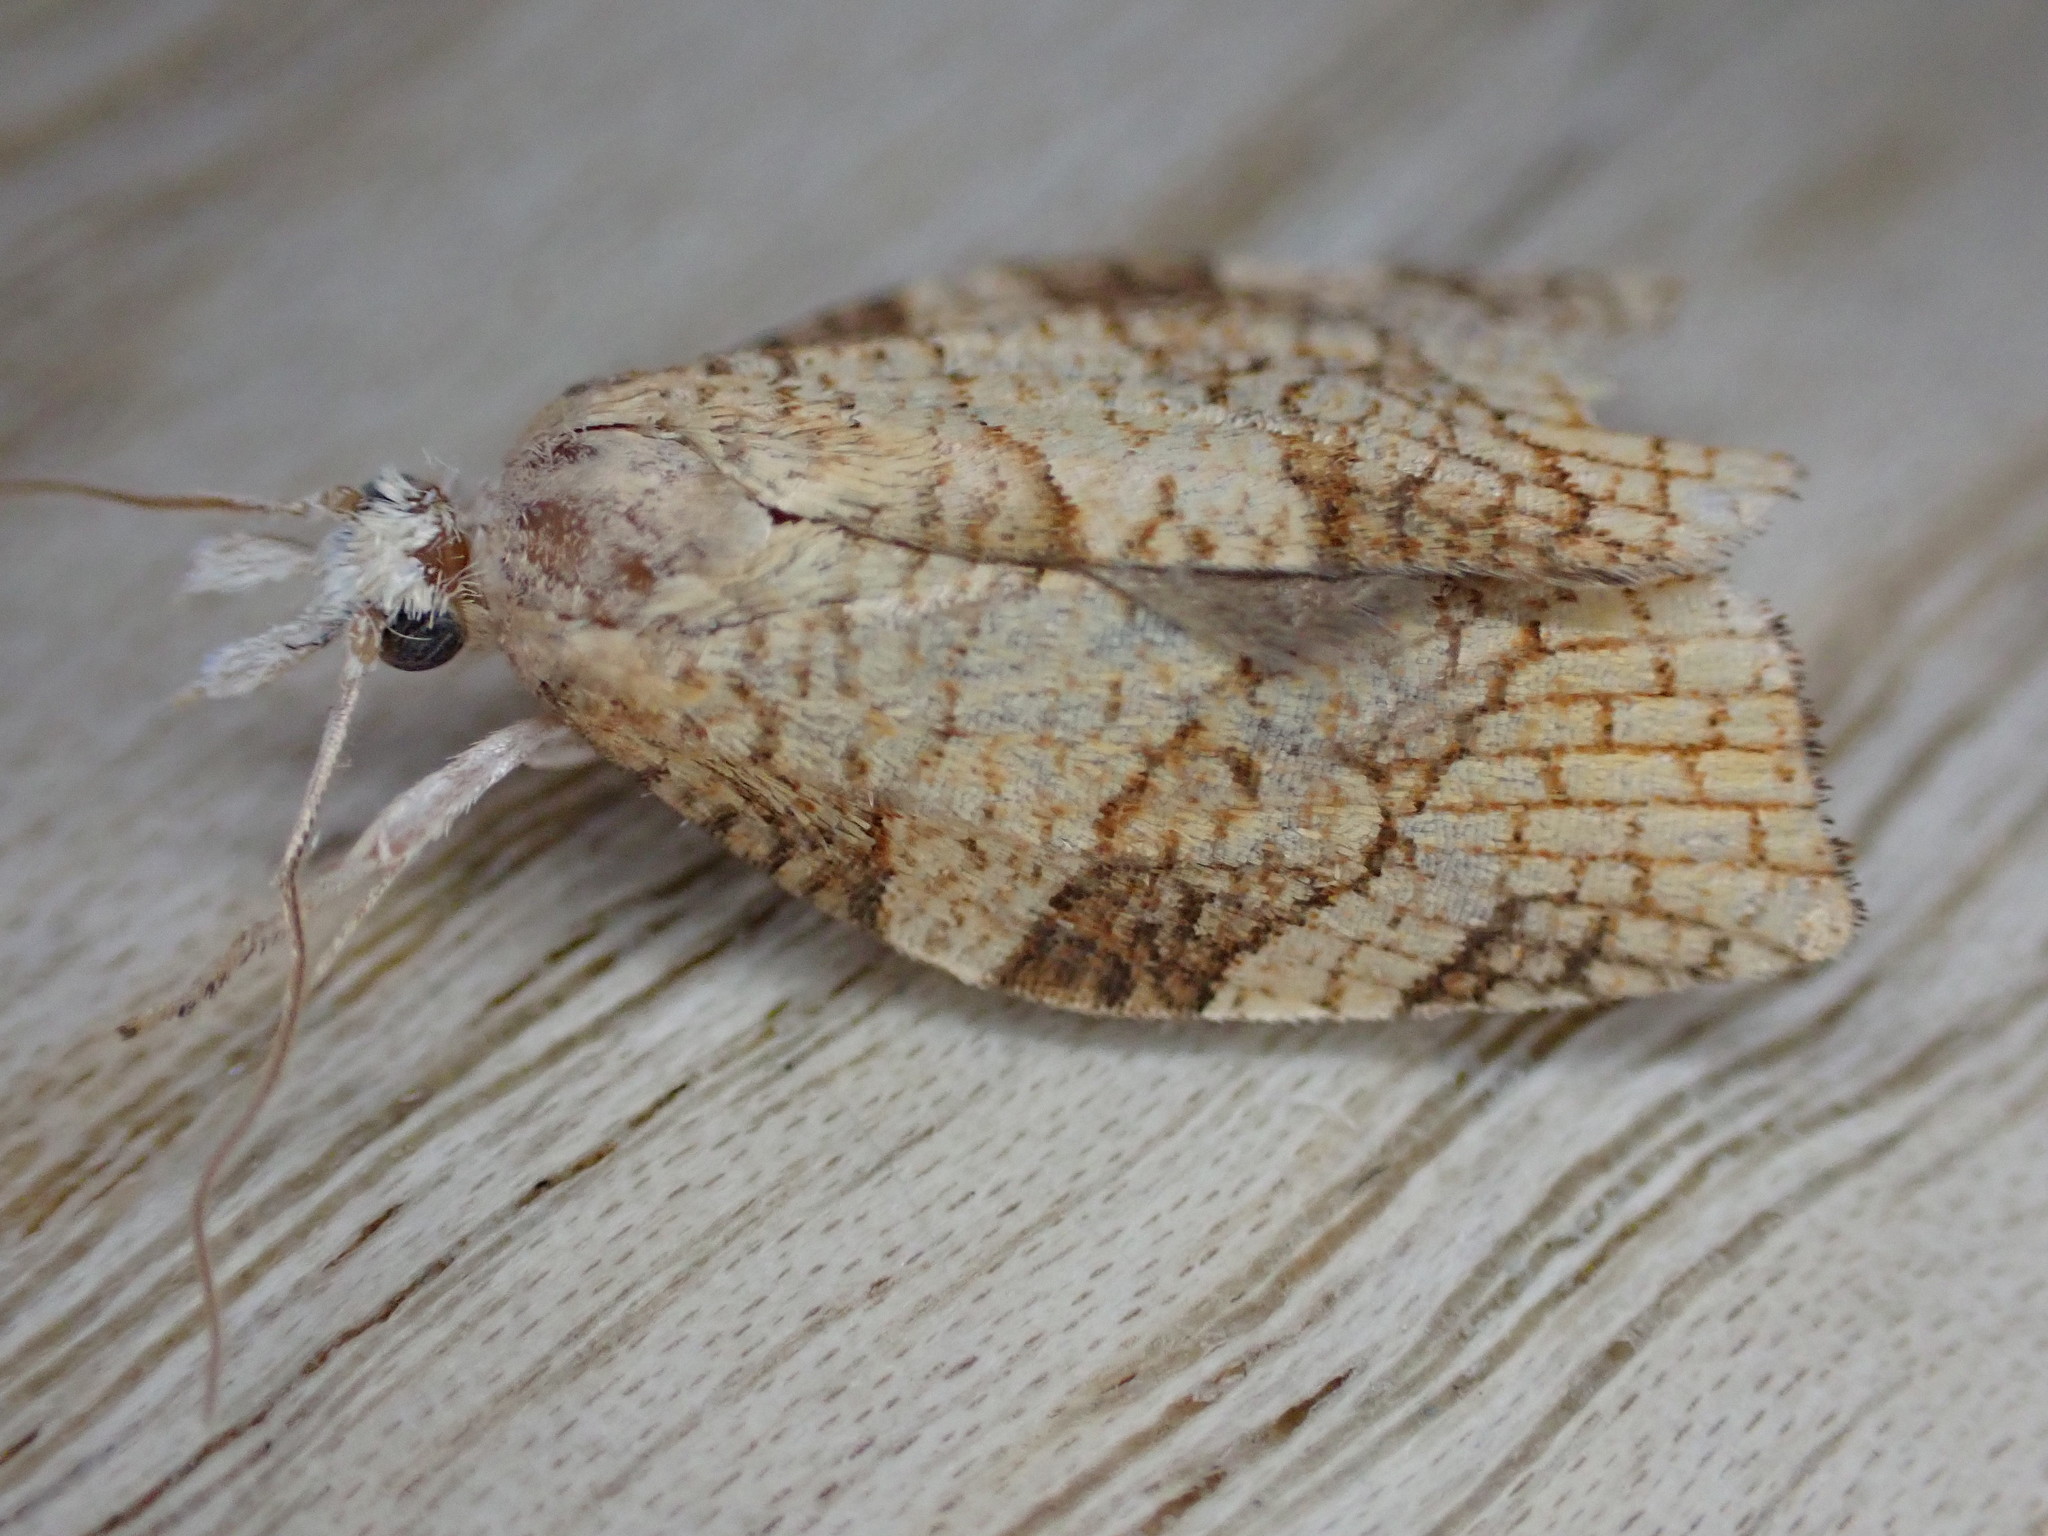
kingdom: Animalia
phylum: Arthropoda
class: Insecta
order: Lepidoptera
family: Tortricidae
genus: Pandemis
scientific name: Pandemis corylana
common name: Chequered fruit-tree tortrix
